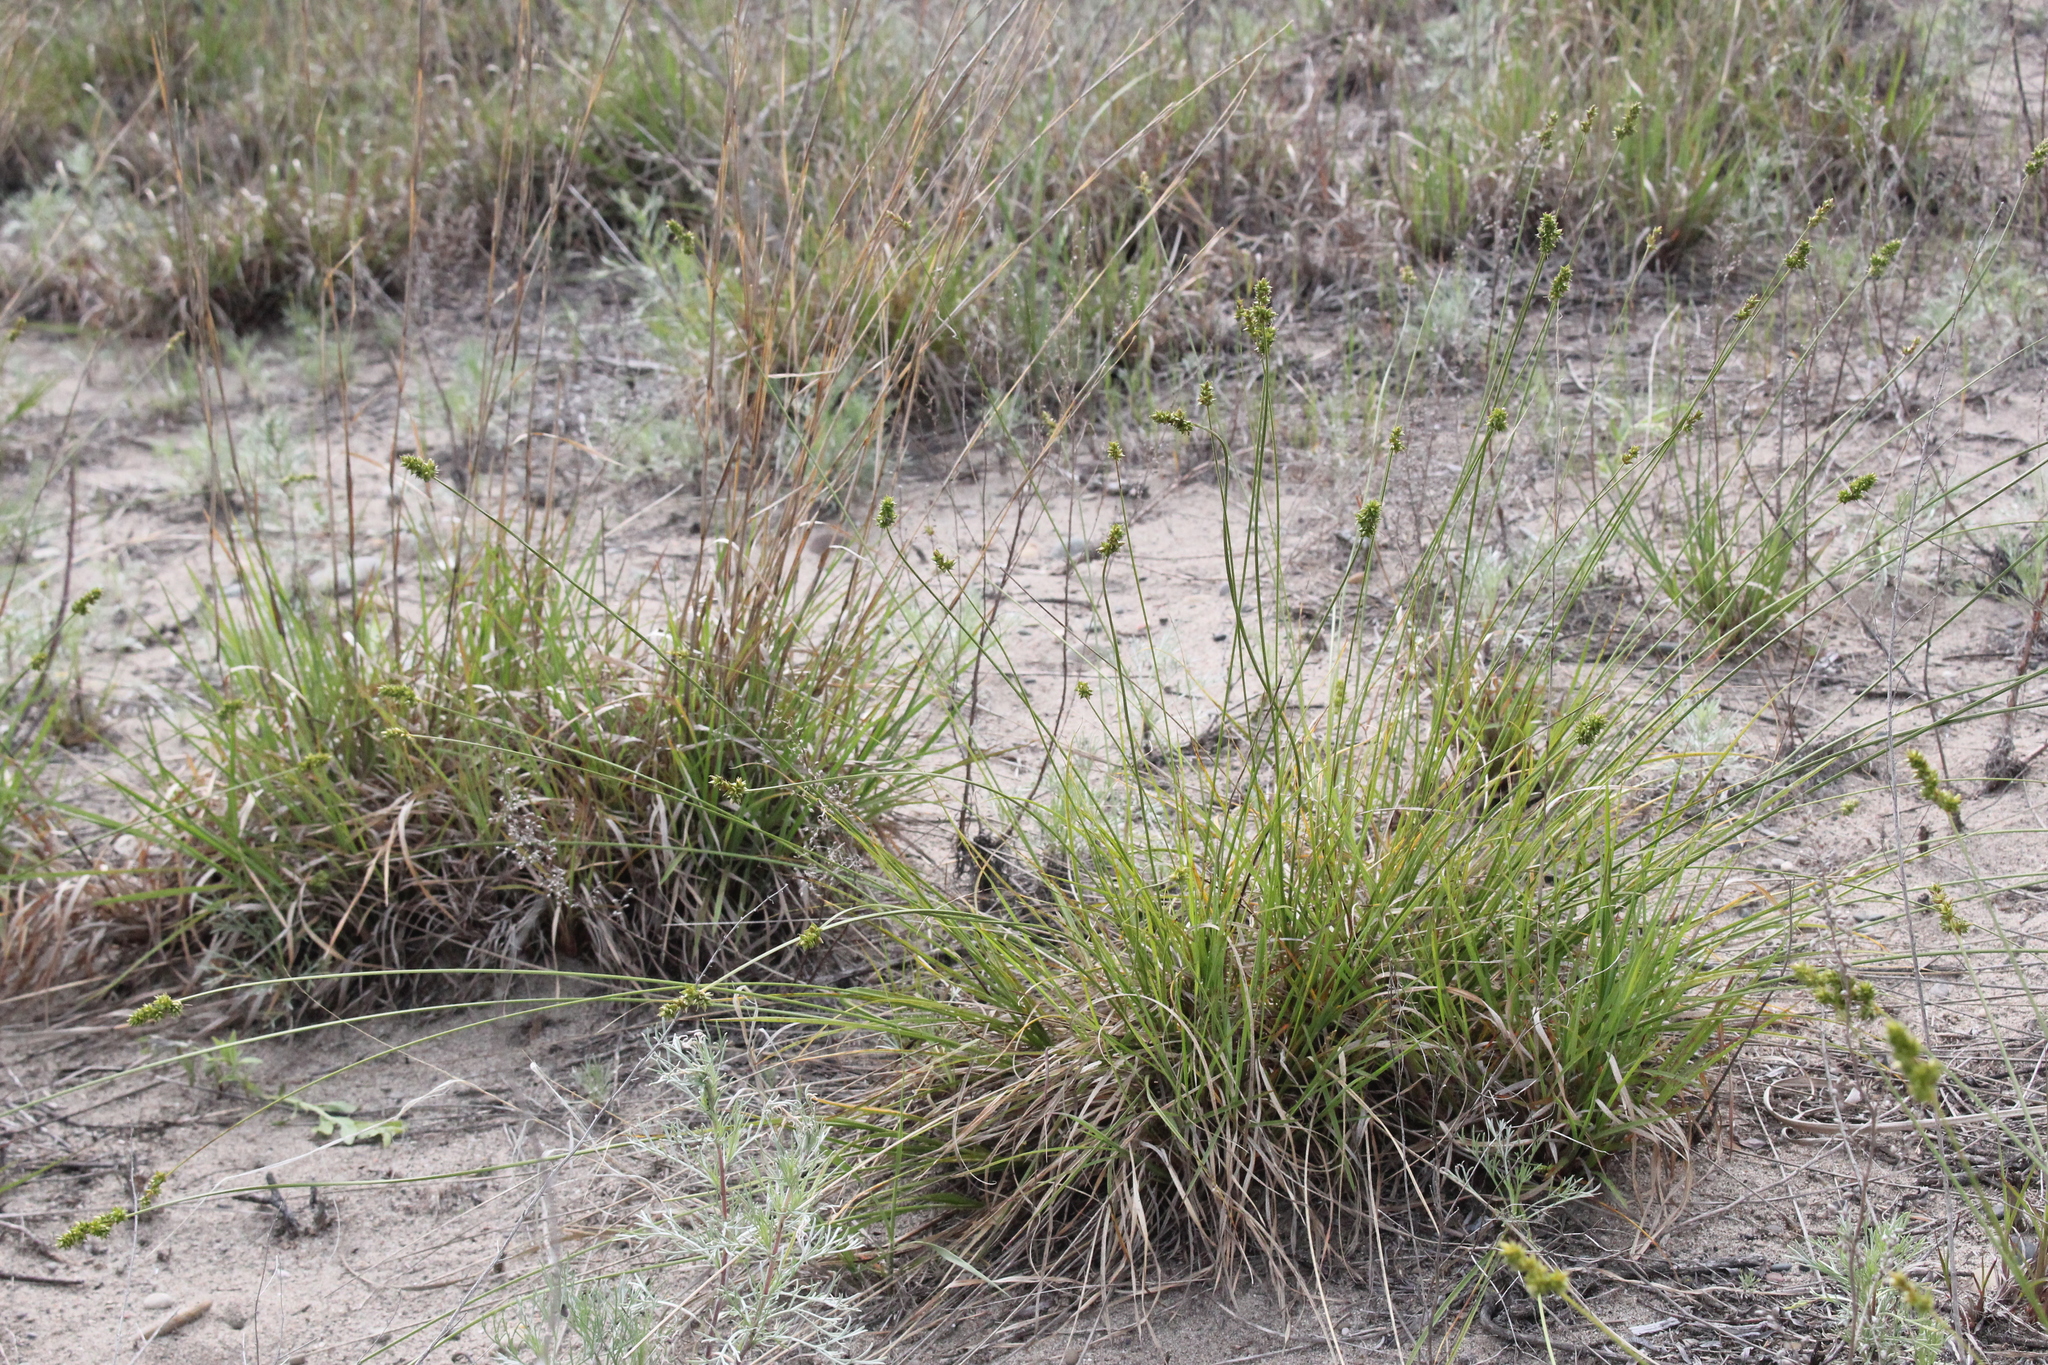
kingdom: Plantae
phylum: Tracheophyta
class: Liliopsida
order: Poales
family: Cyperaceae
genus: Carex
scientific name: Carex muehlenbergii
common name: Muhlenberg's bracted sedge
